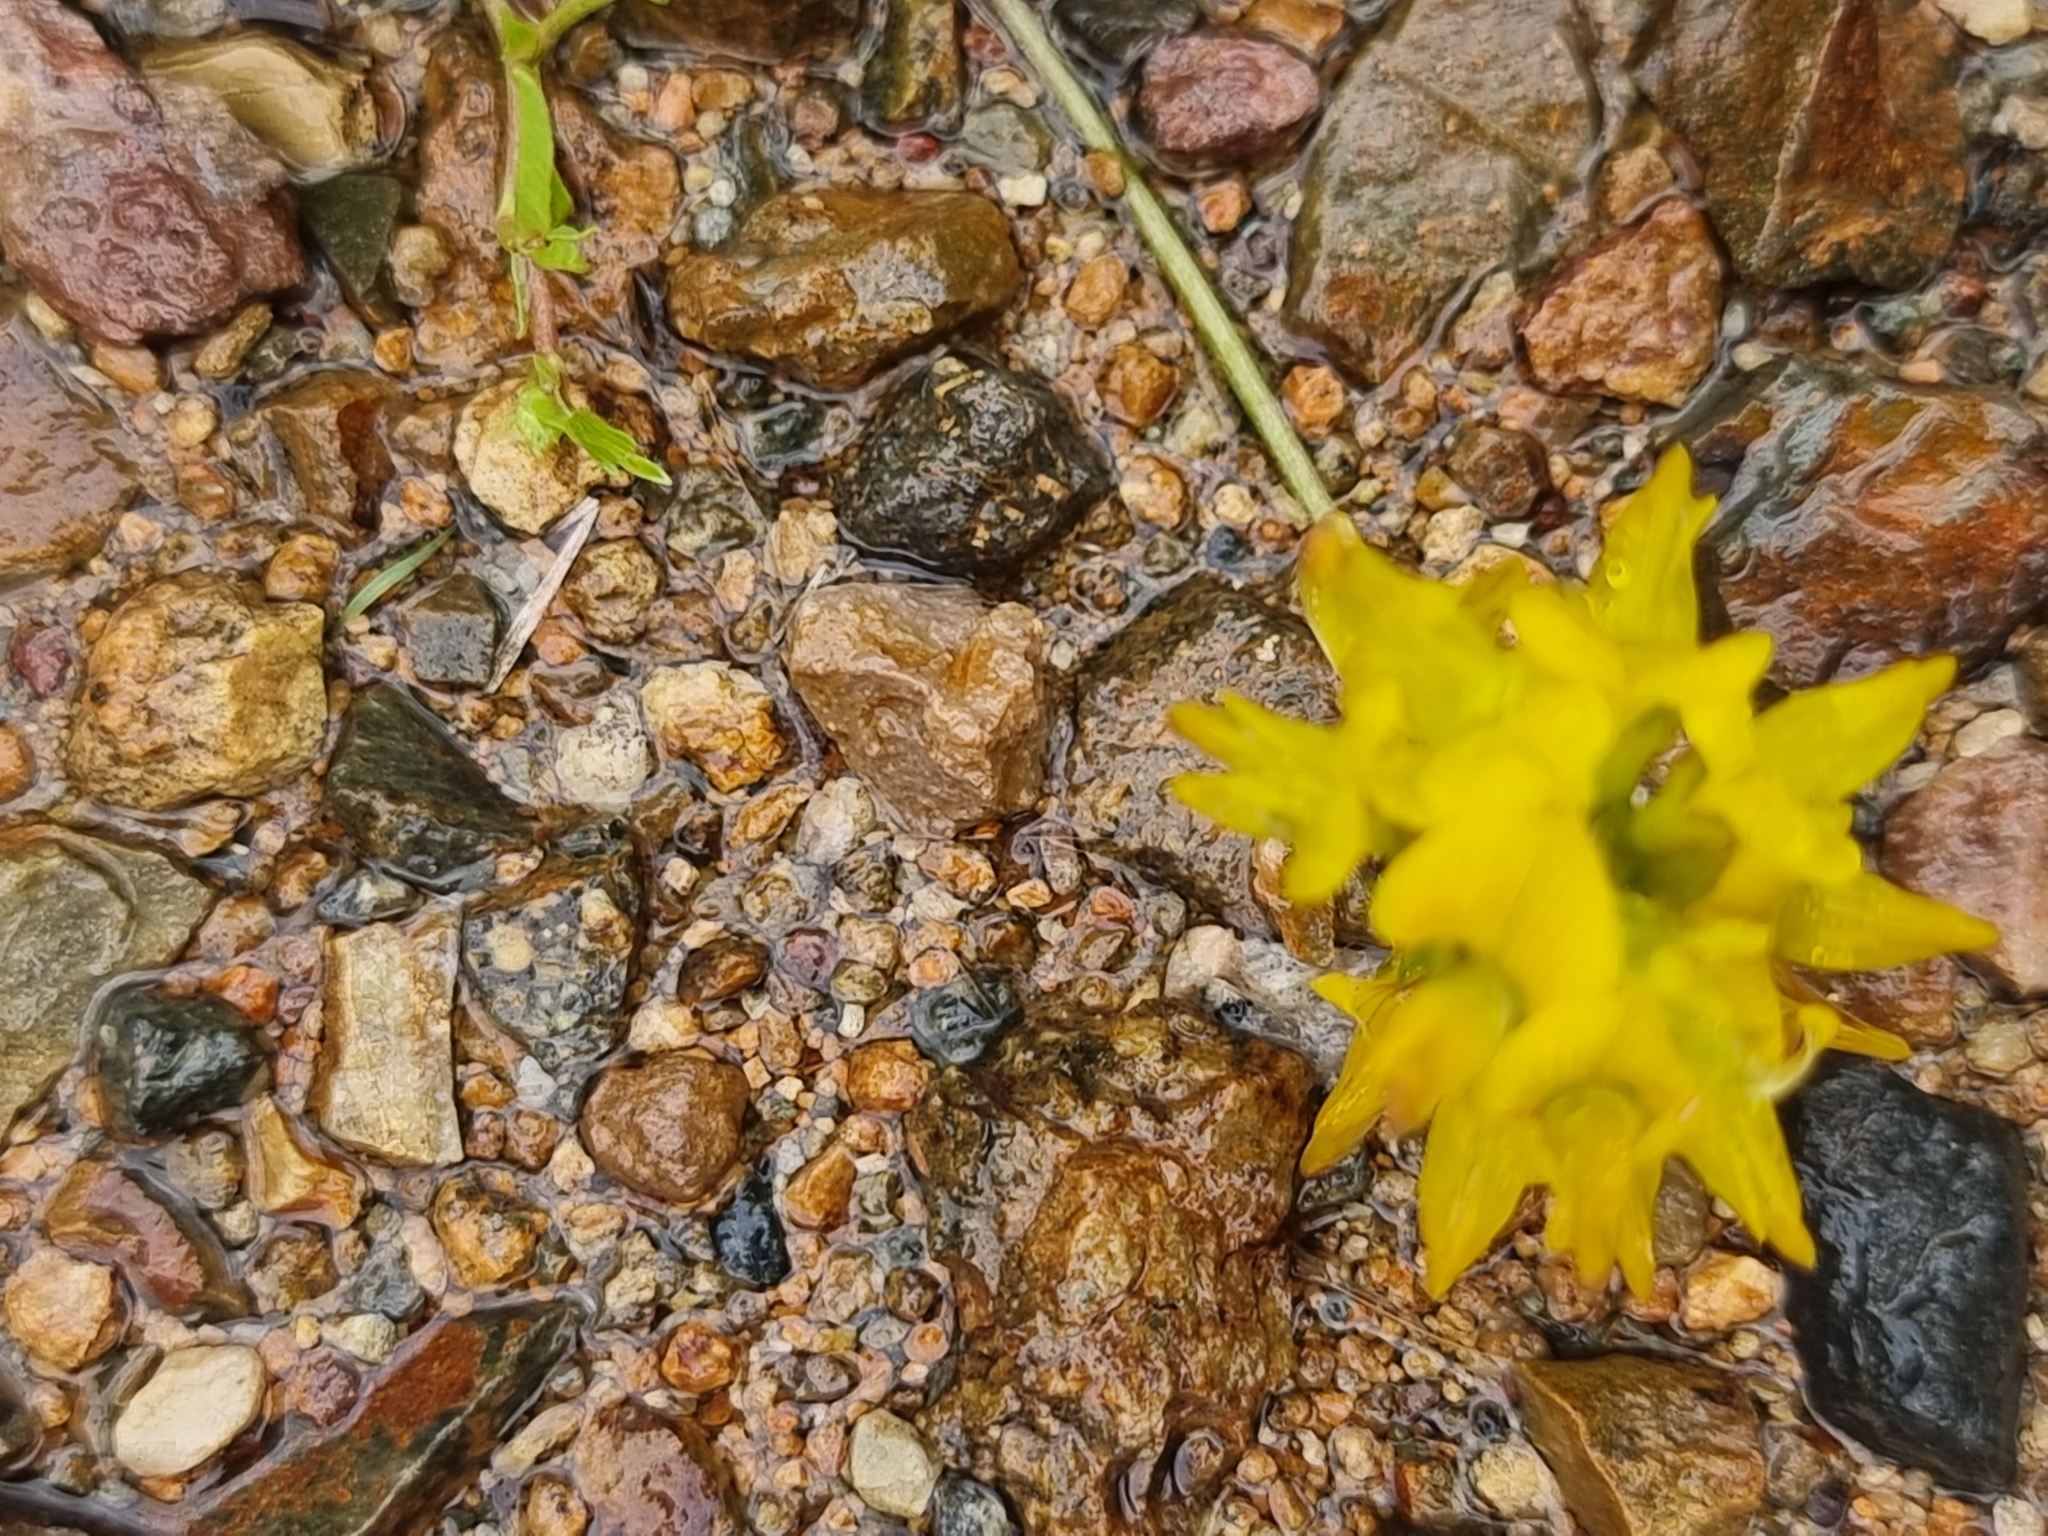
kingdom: Plantae
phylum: Tracheophyta
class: Magnoliopsida
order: Fabales
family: Fabaceae
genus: Listia
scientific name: Listia bainesii
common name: Lotononis
